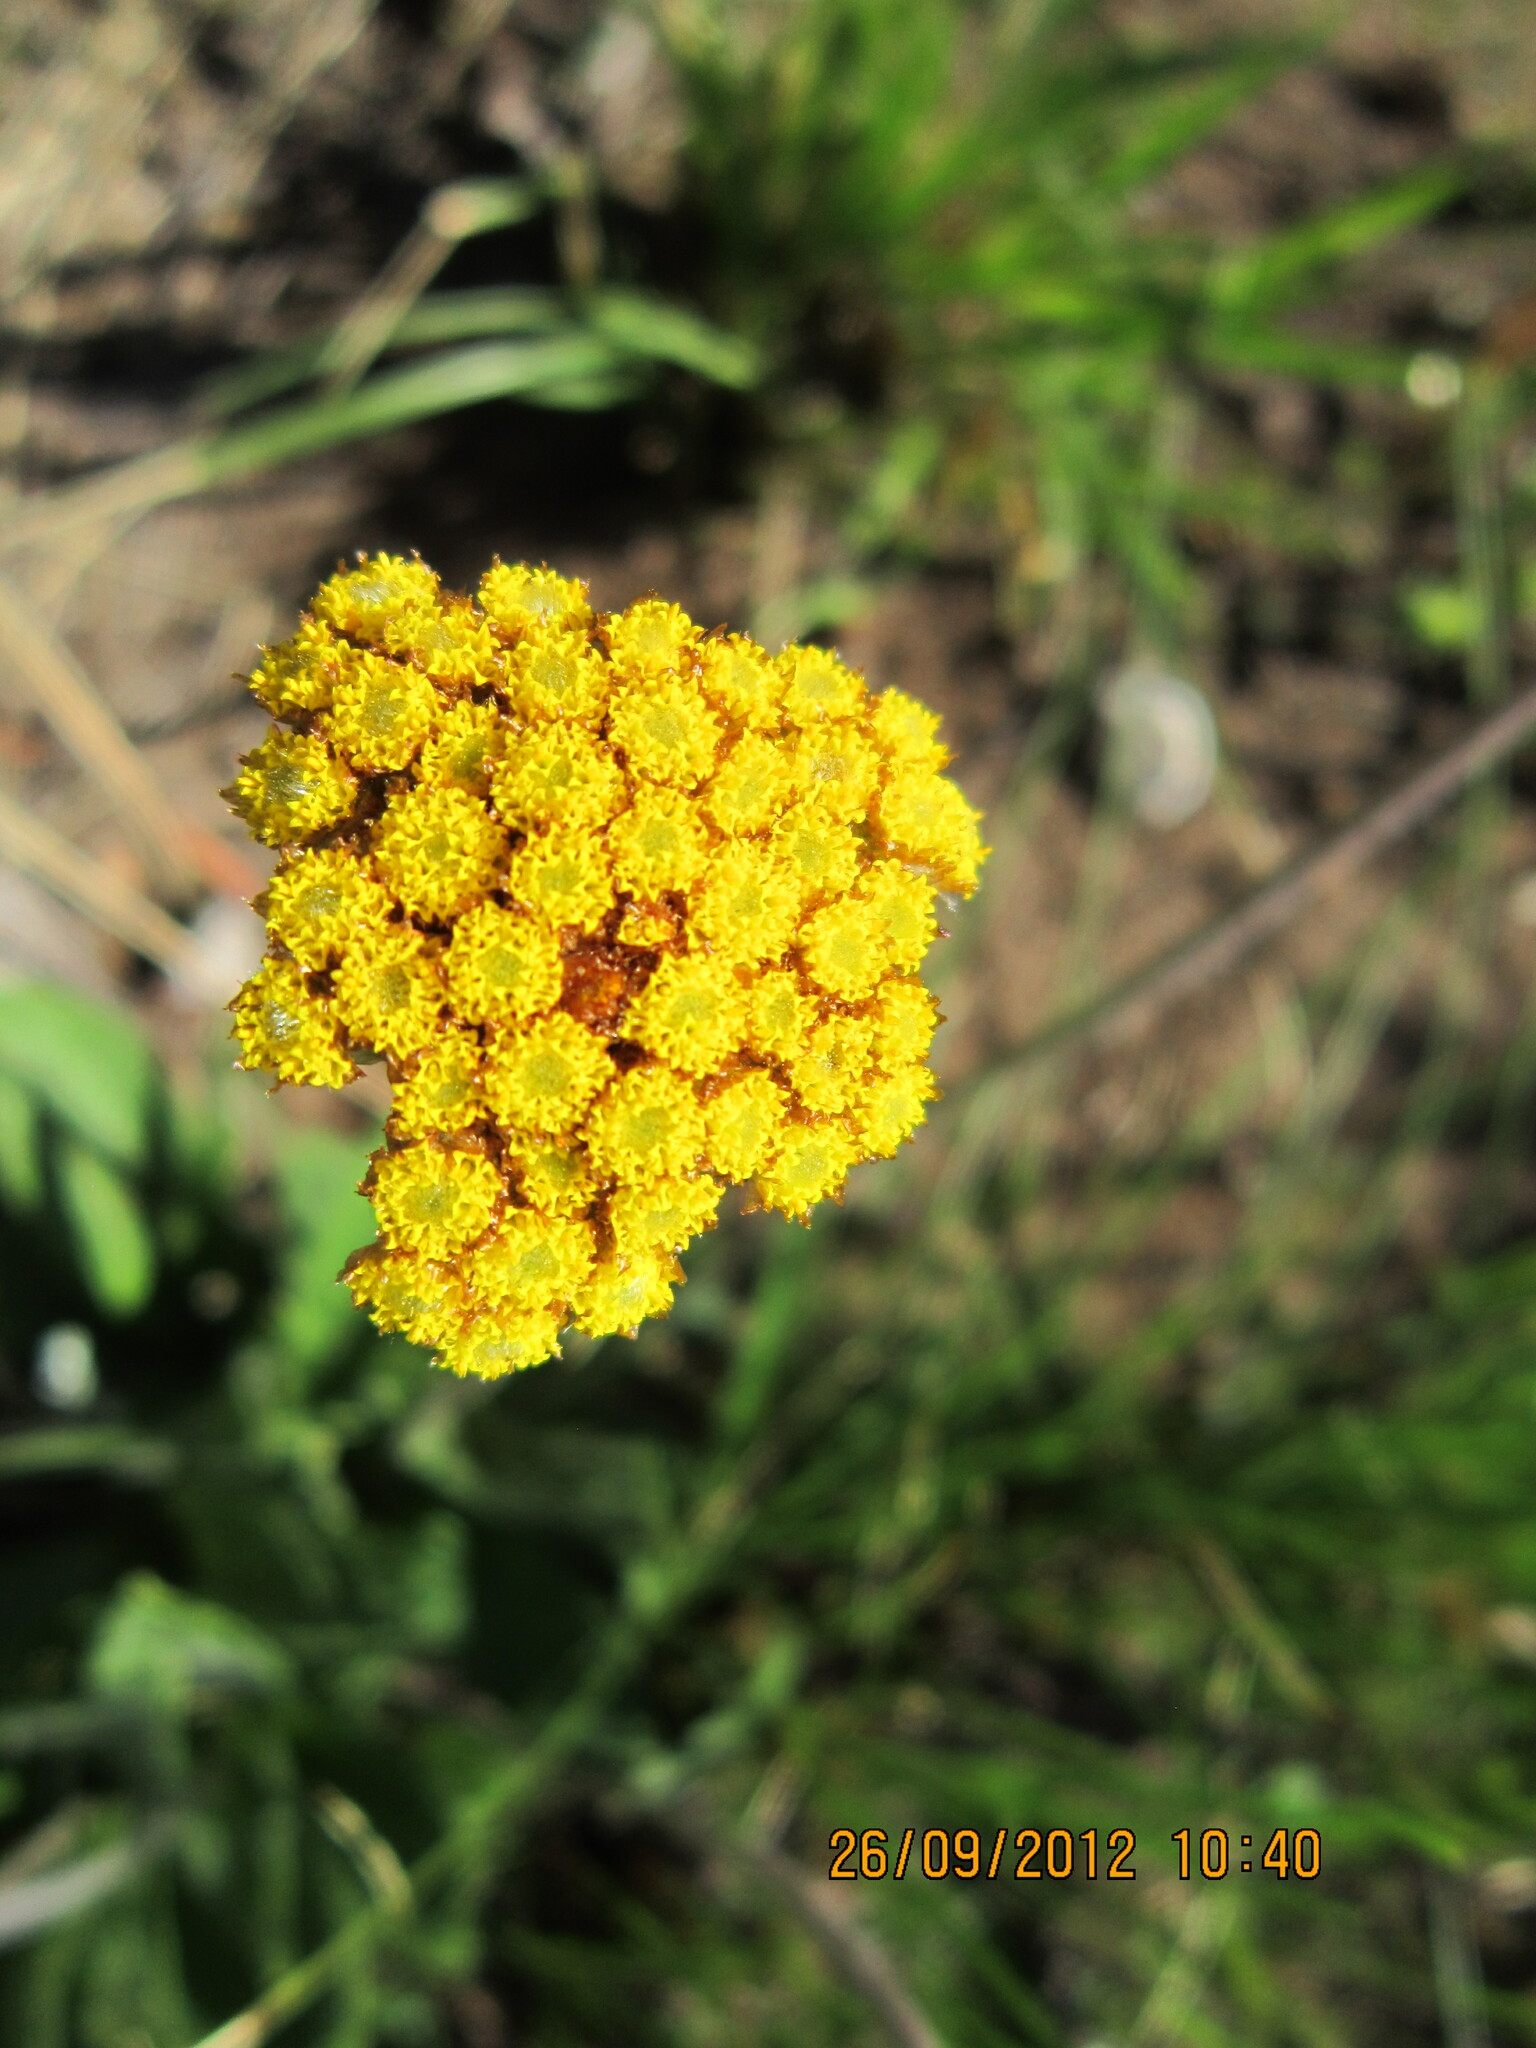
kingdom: Plantae
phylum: Tracheophyta
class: Magnoliopsida
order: Asterales
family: Asteraceae
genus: Helichrysum
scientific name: Helichrysum nudifolium
